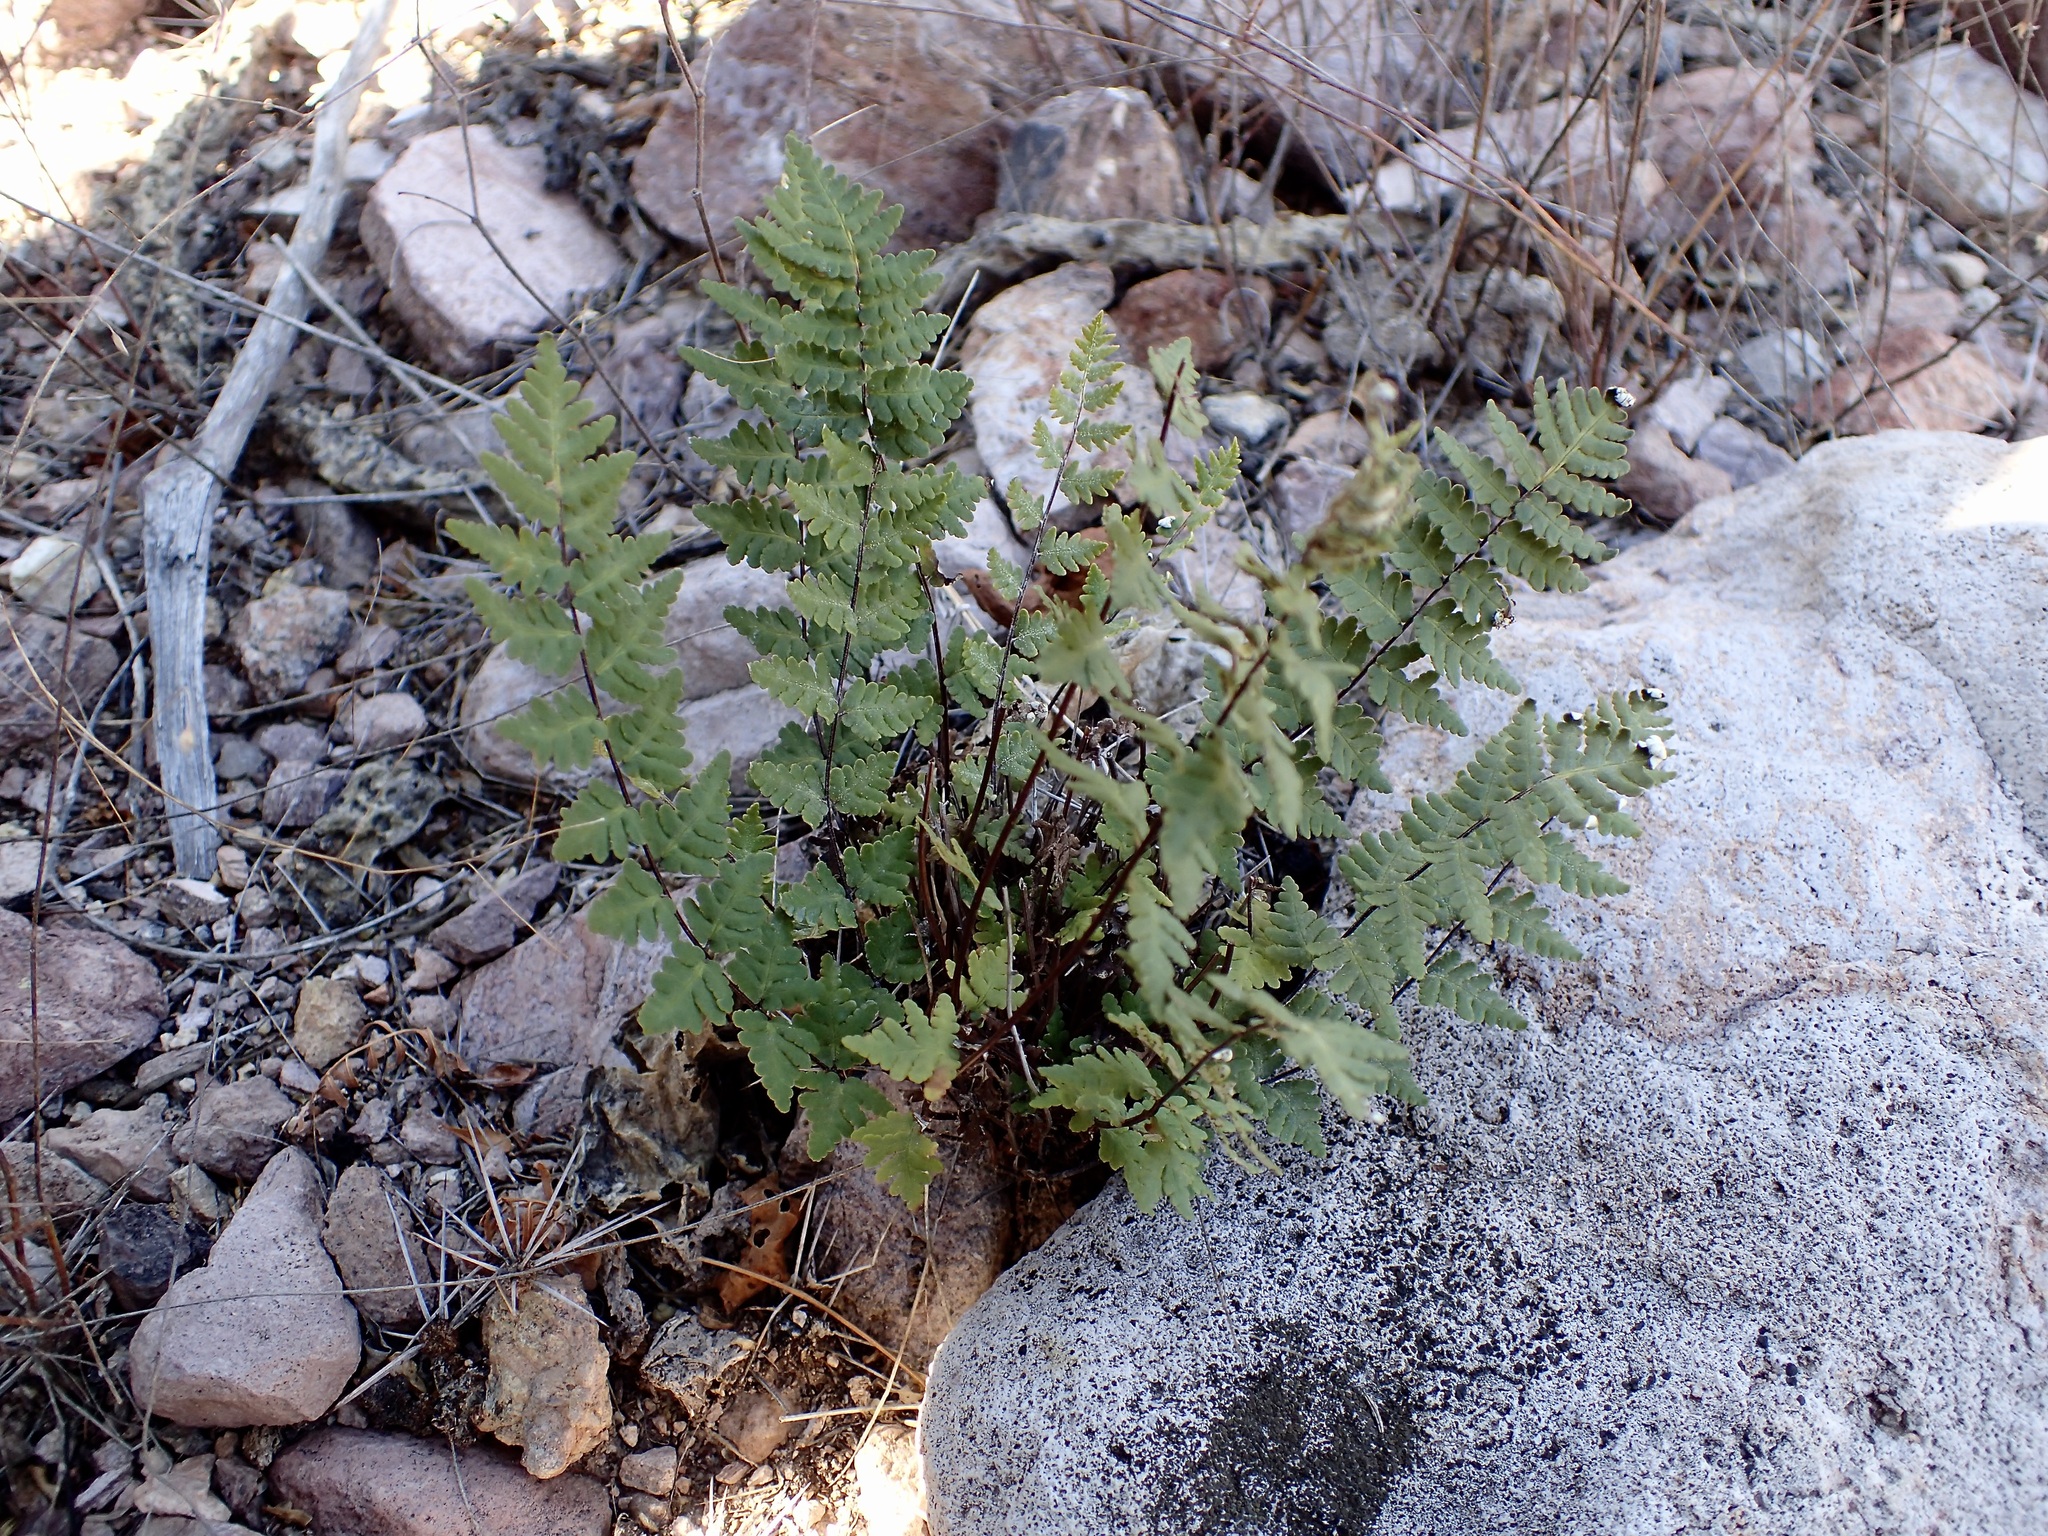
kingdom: Plantae
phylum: Tracheophyta
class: Polypodiopsida
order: Polypodiales
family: Pteridaceae
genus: Notholaena
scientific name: Notholaena lemmonii
